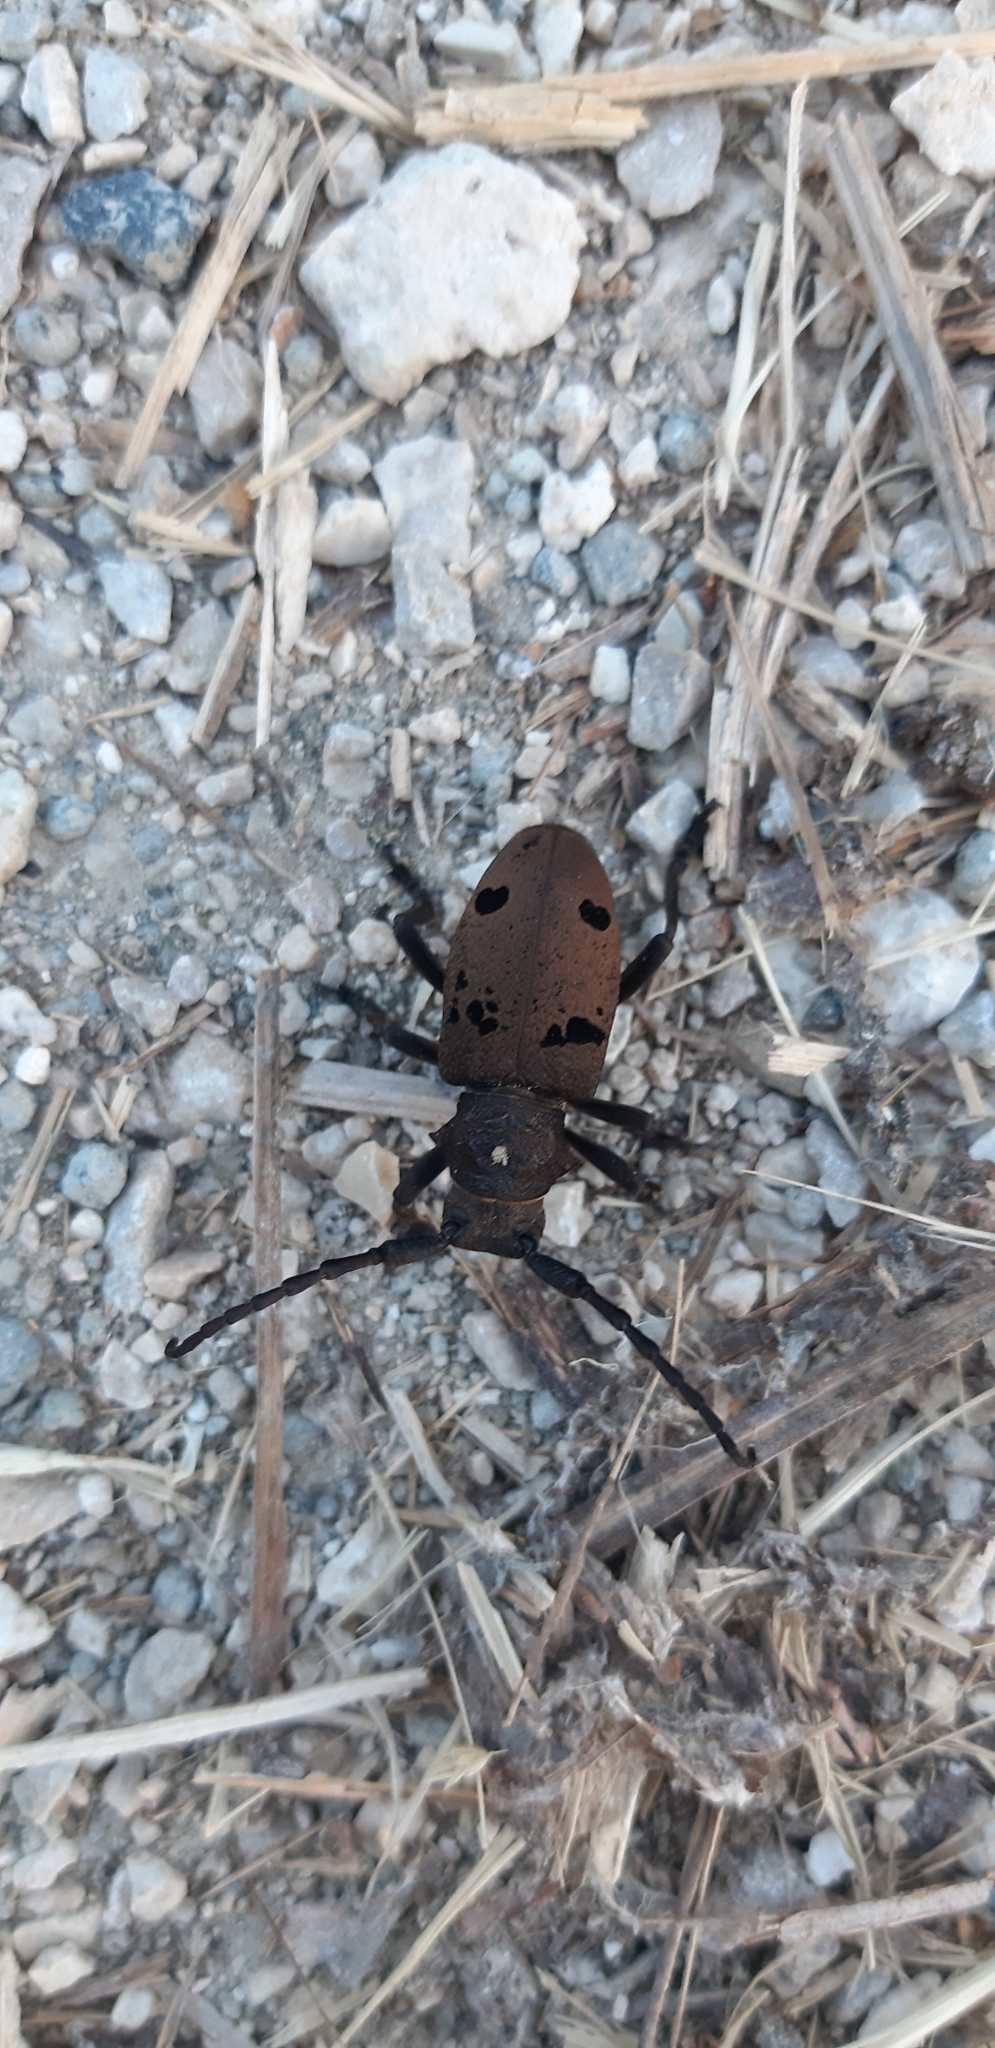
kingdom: Animalia
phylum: Arthropoda
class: Insecta
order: Coleoptera
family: Cerambycidae
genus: Herophila
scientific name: Herophila tristis
